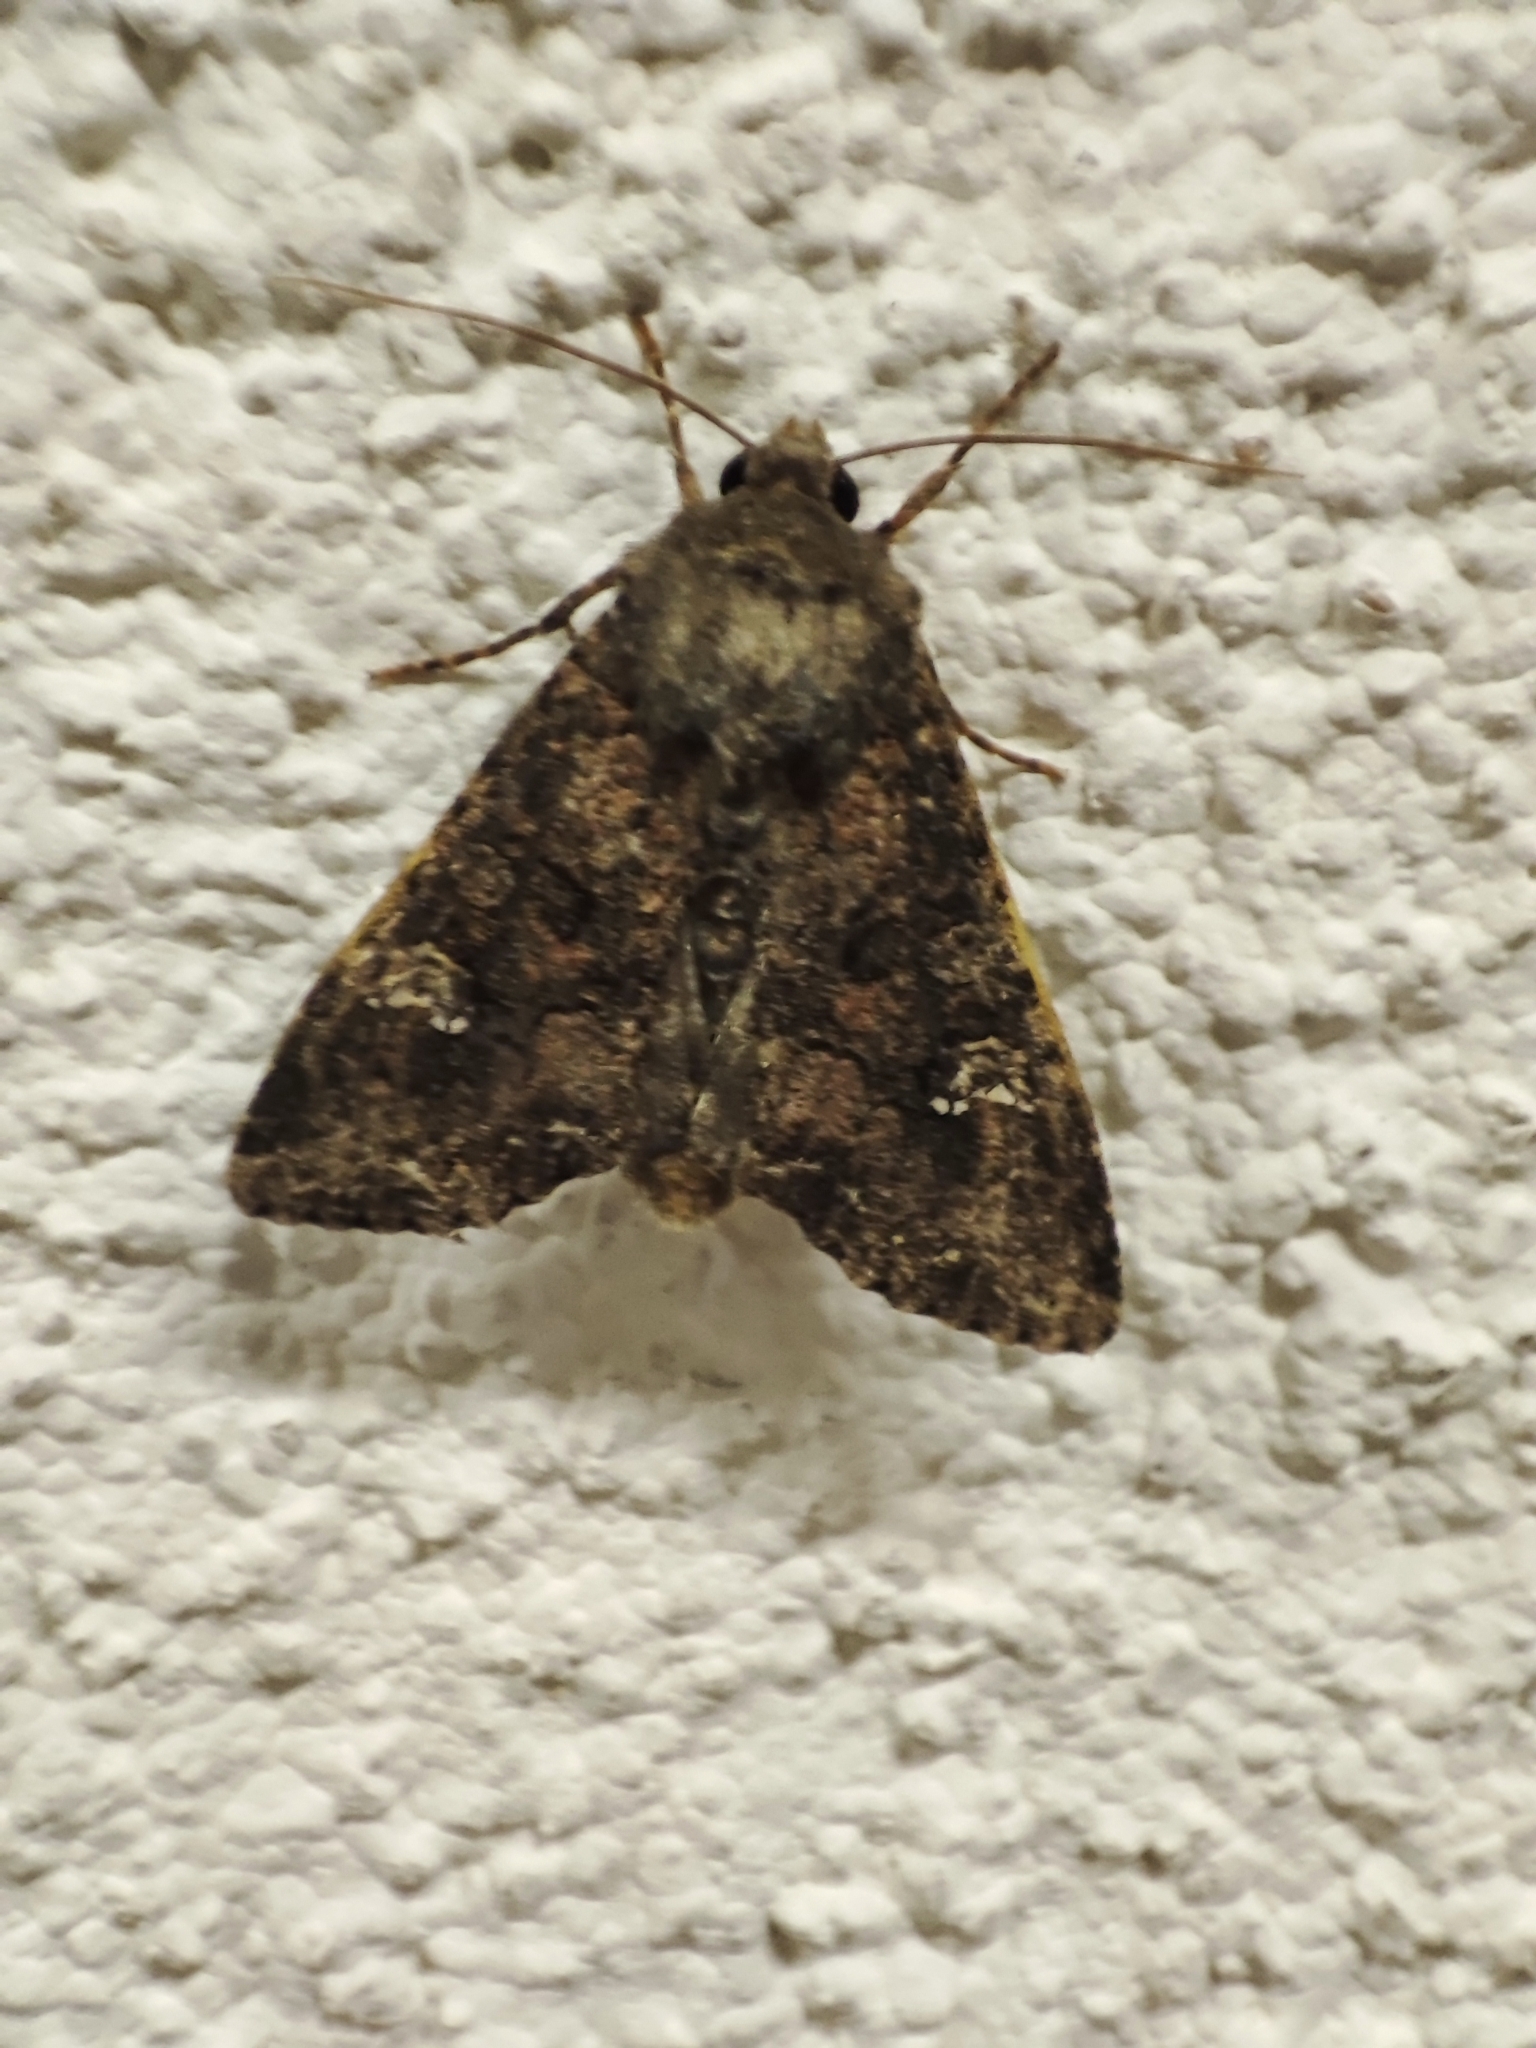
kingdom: Animalia
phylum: Arthropoda
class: Insecta
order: Lepidoptera
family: Noctuidae
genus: Mamestra
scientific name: Mamestra brassicae
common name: Cabbage moth
